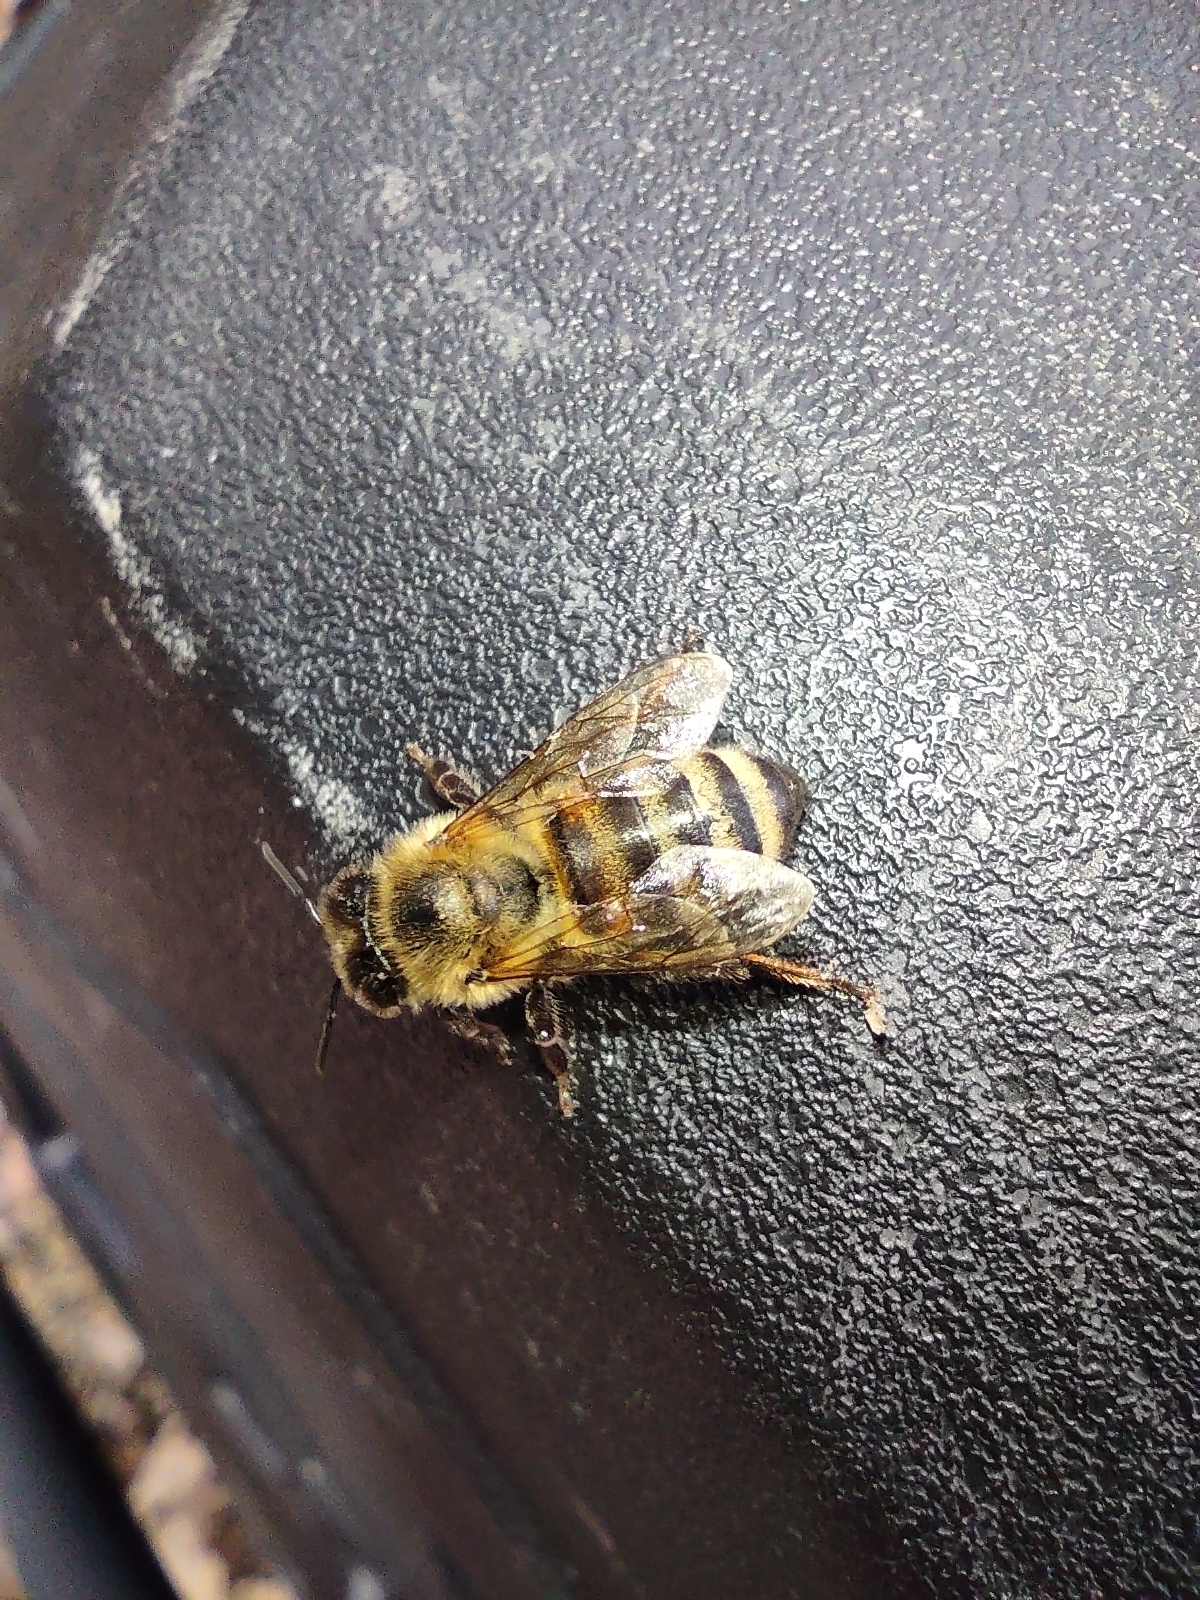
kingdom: Animalia
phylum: Arthropoda
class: Insecta
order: Hymenoptera
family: Apidae
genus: Apis
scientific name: Apis mellifera
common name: Honey bee
